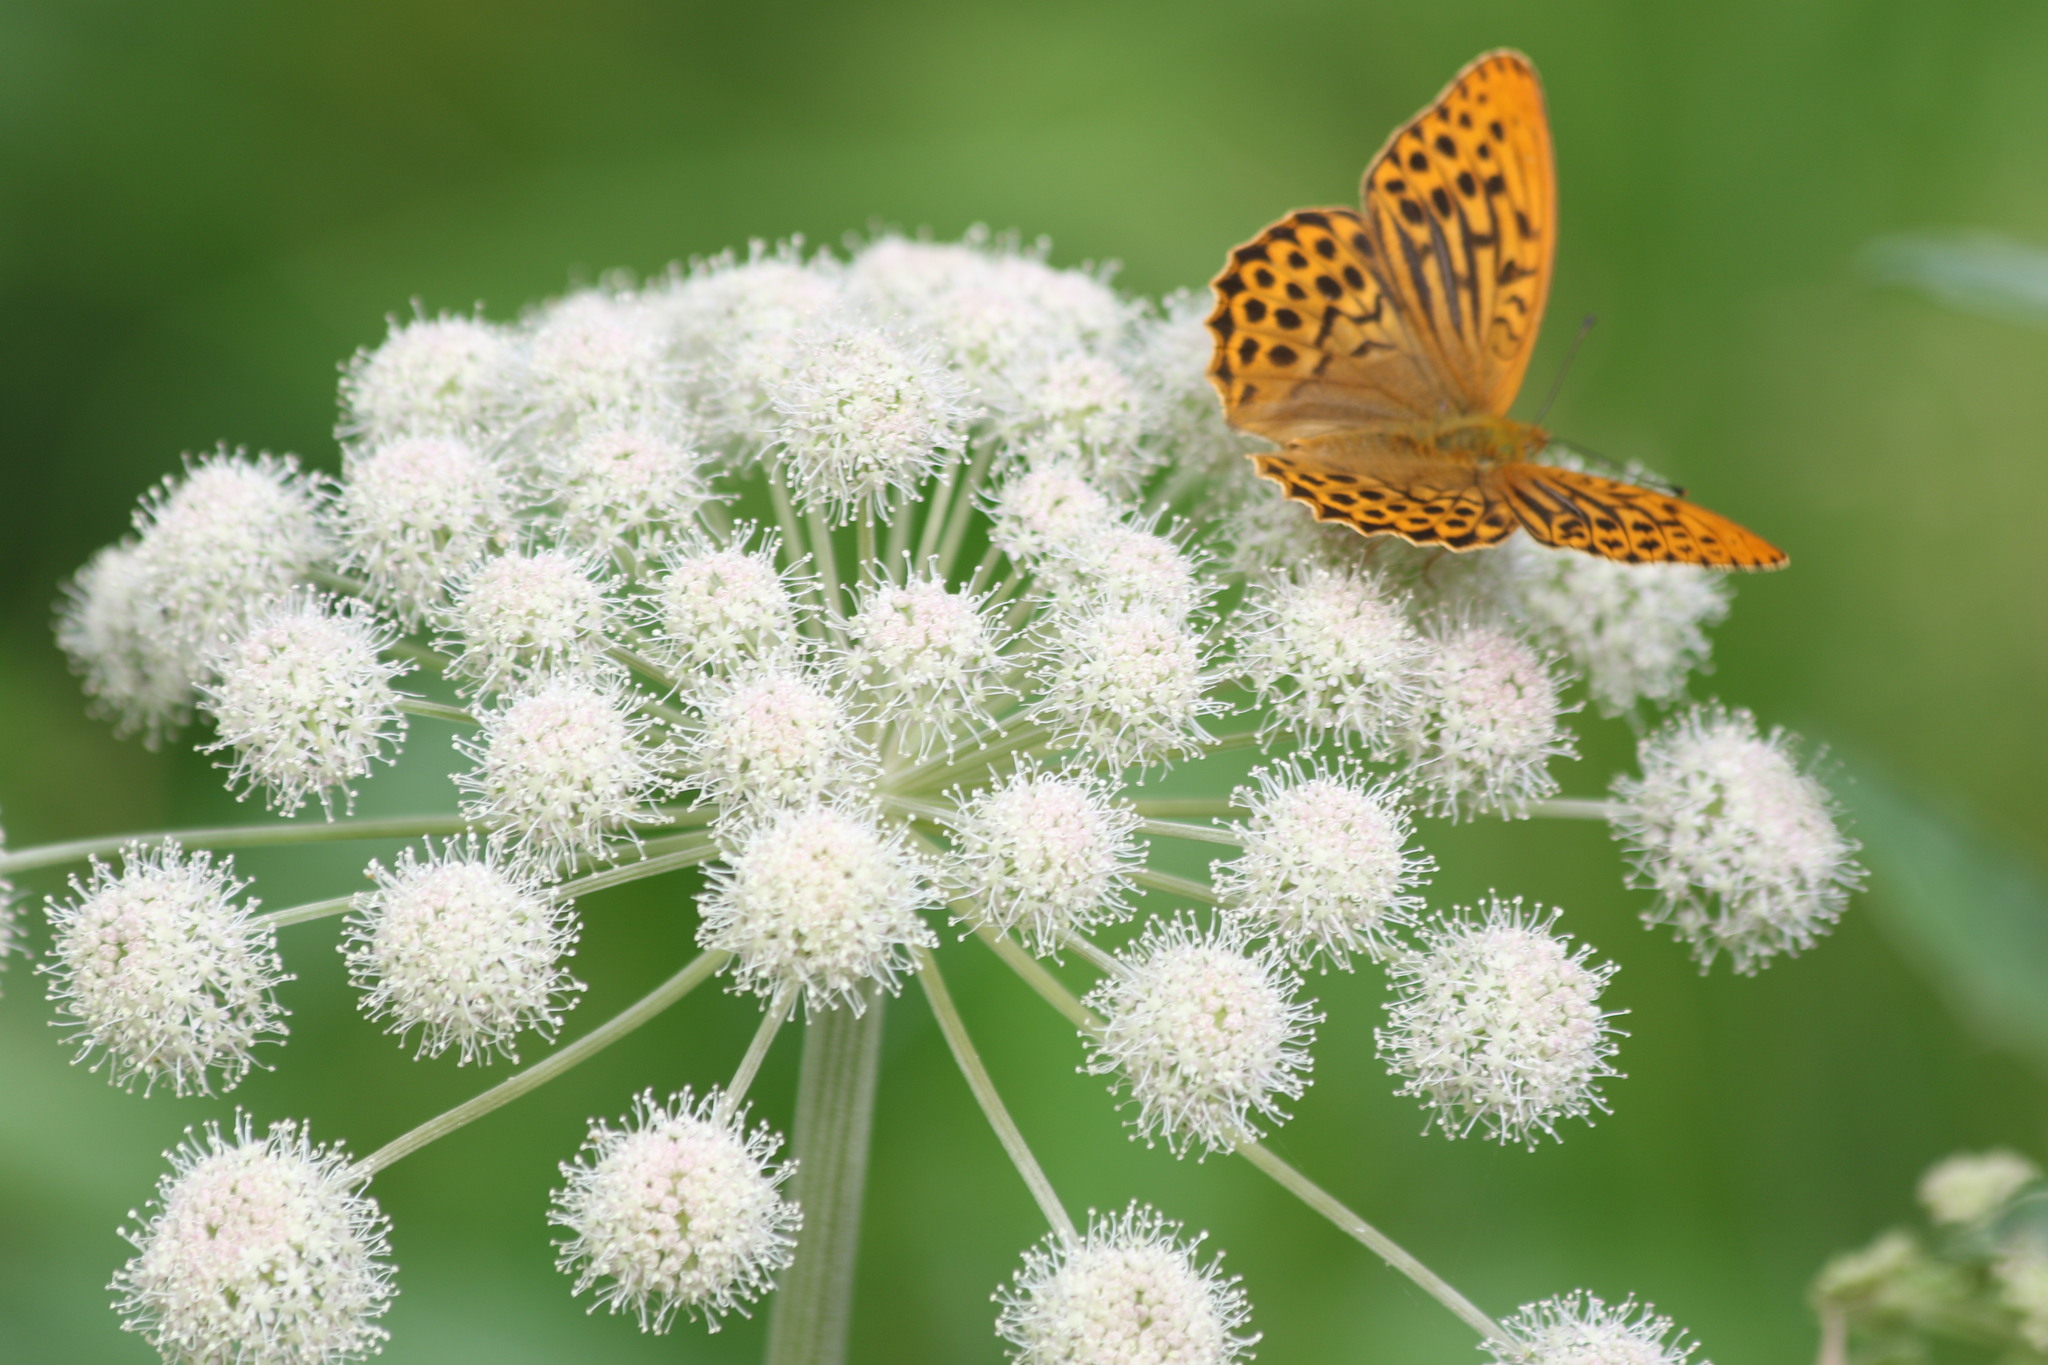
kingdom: Animalia
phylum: Arthropoda
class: Insecta
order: Lepidoptera
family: Nymphalidae
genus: Argynnis
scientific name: Argynnis paphia
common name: Silver-washed fritillary
